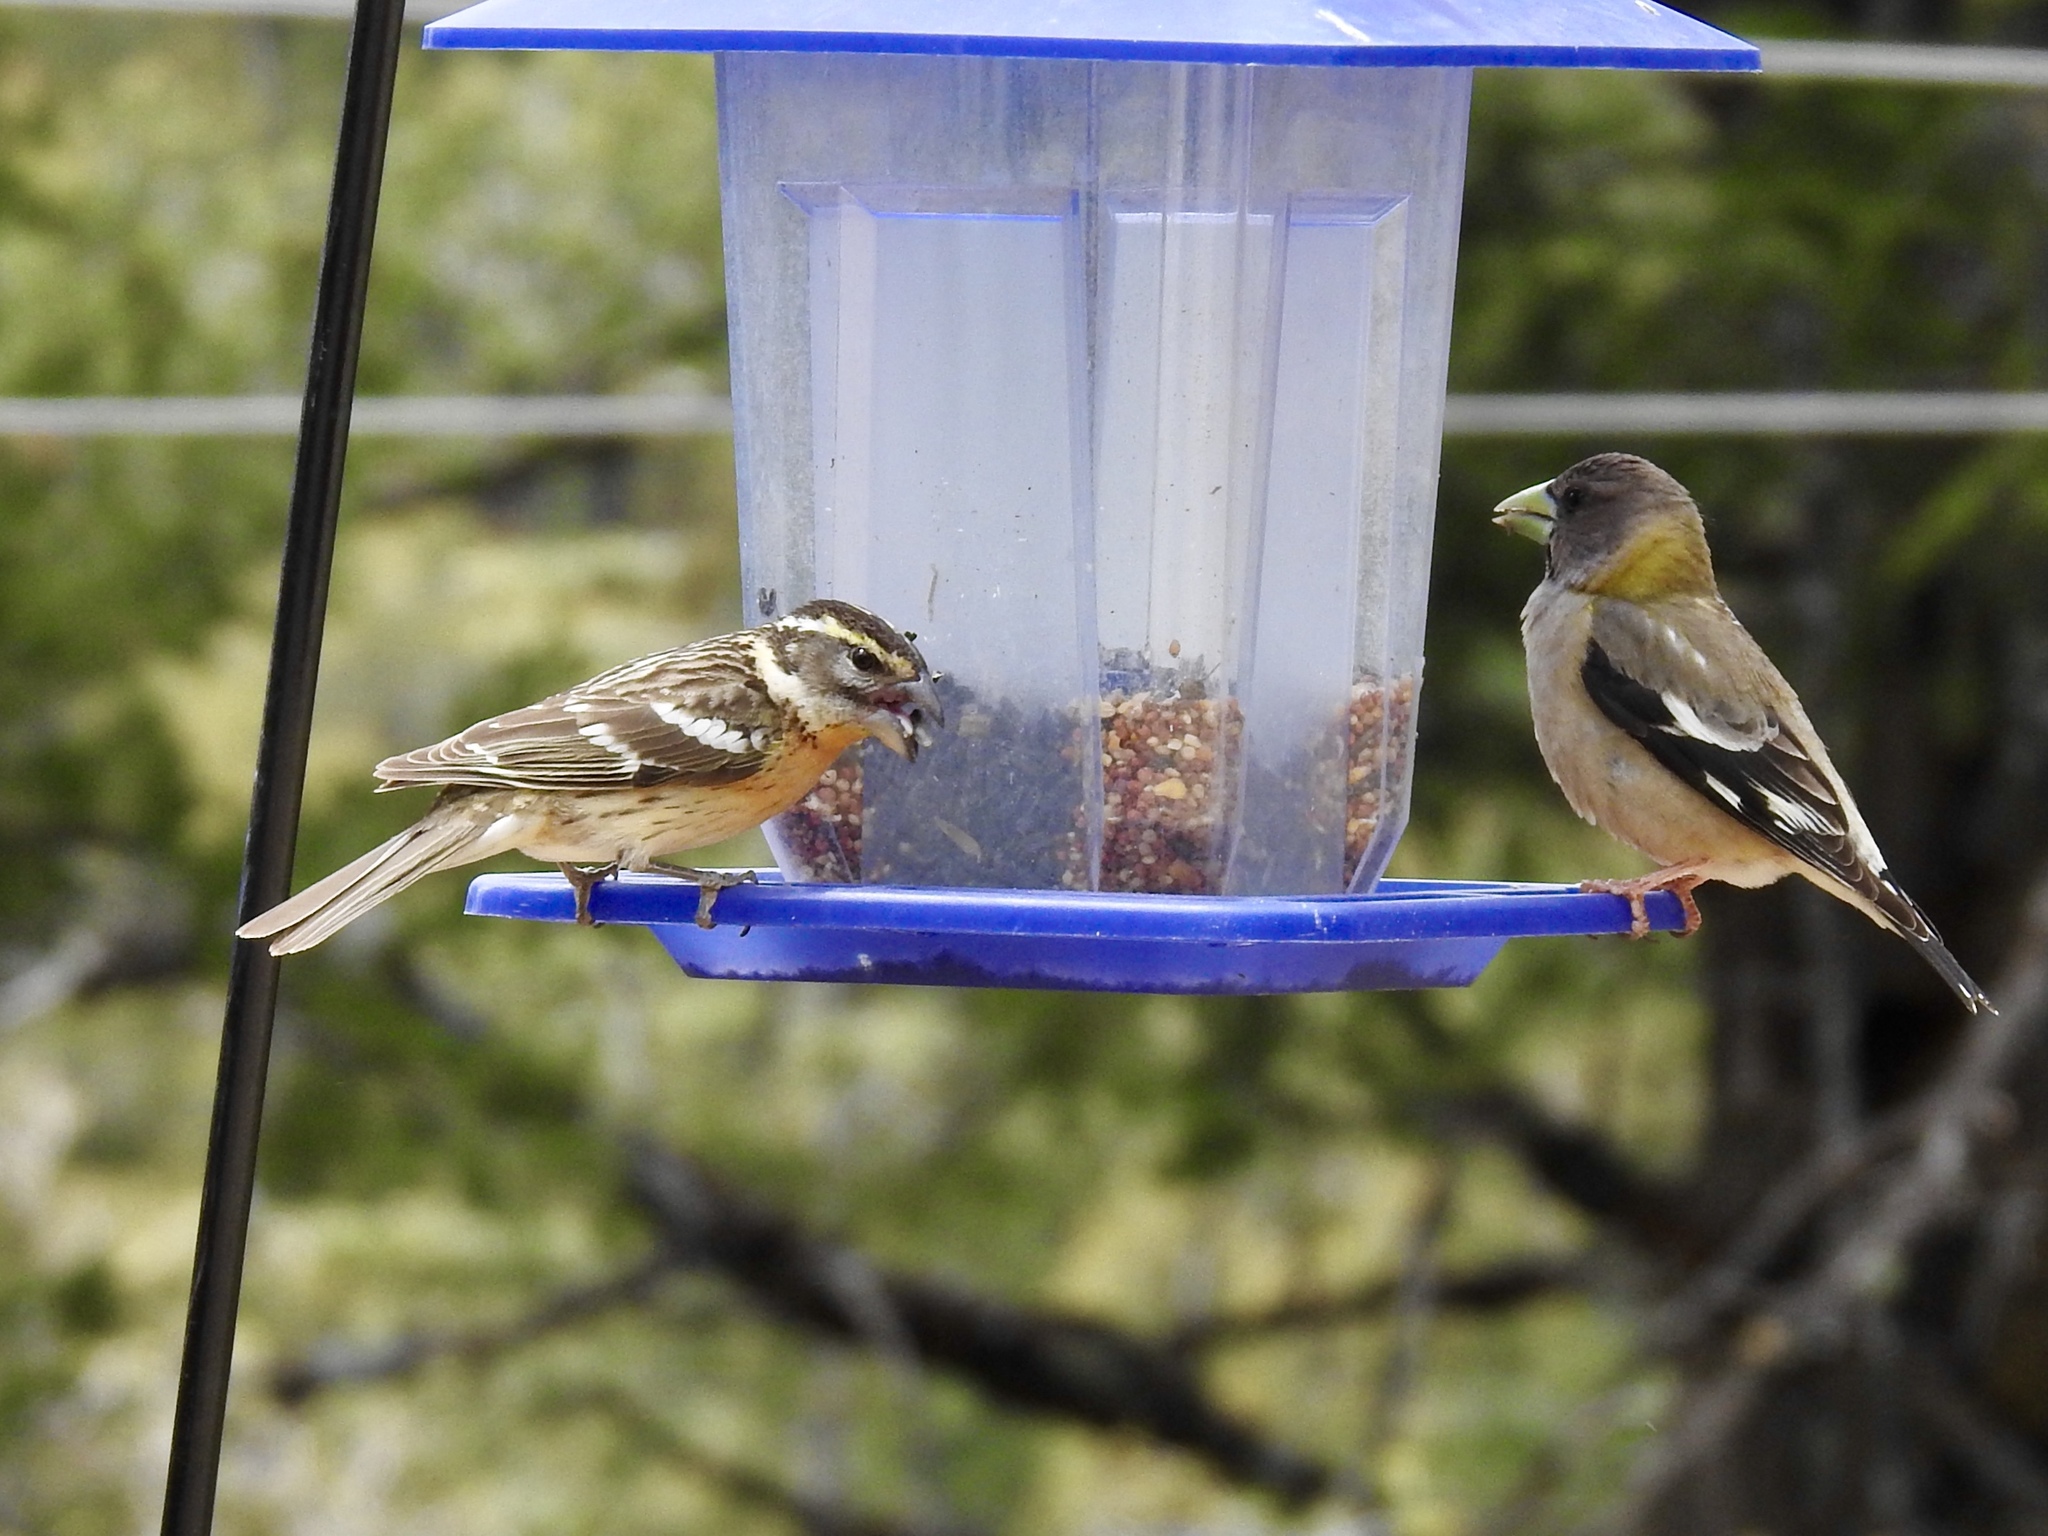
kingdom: Animalia
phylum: Chordata
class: Aves
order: Passeriformes
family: Cardinalidae
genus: Pheucticus
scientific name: Pheucticus melanocephalus
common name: Black-headed grosbeak
